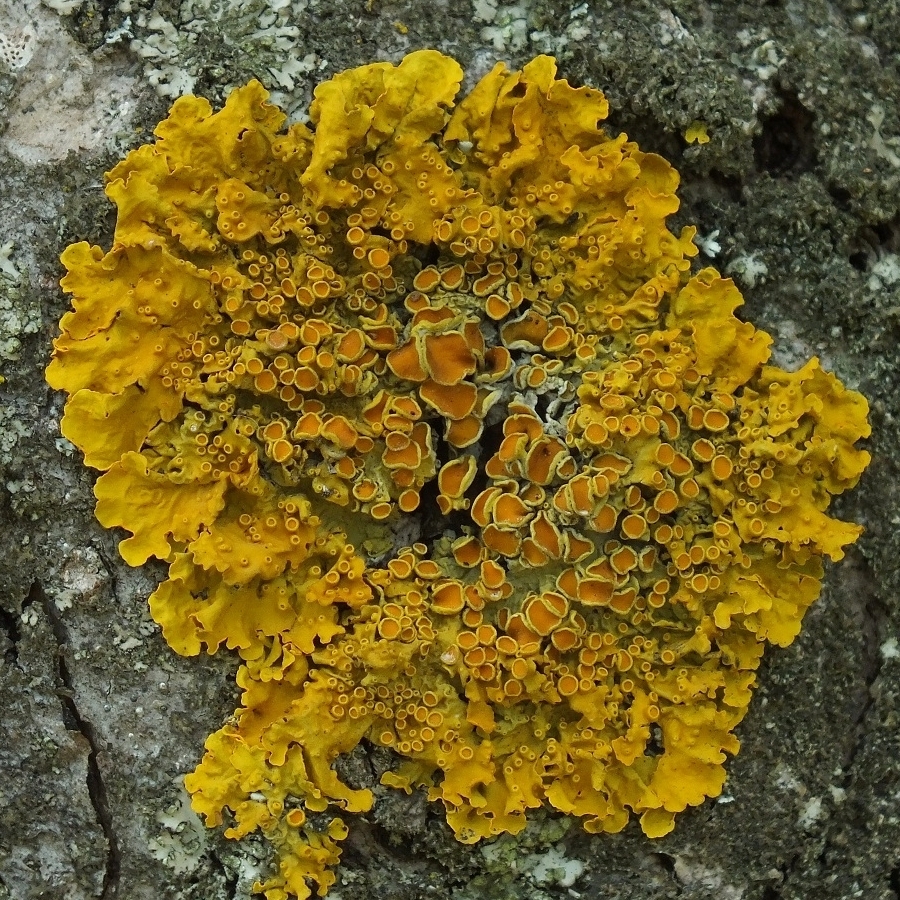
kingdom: Fungi
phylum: Ascomycota
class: Lecanoromycetes
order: Teloschistales
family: Teloschistaceae
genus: Xanthoria
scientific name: Xanthoria parietina
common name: Common orange lichen
